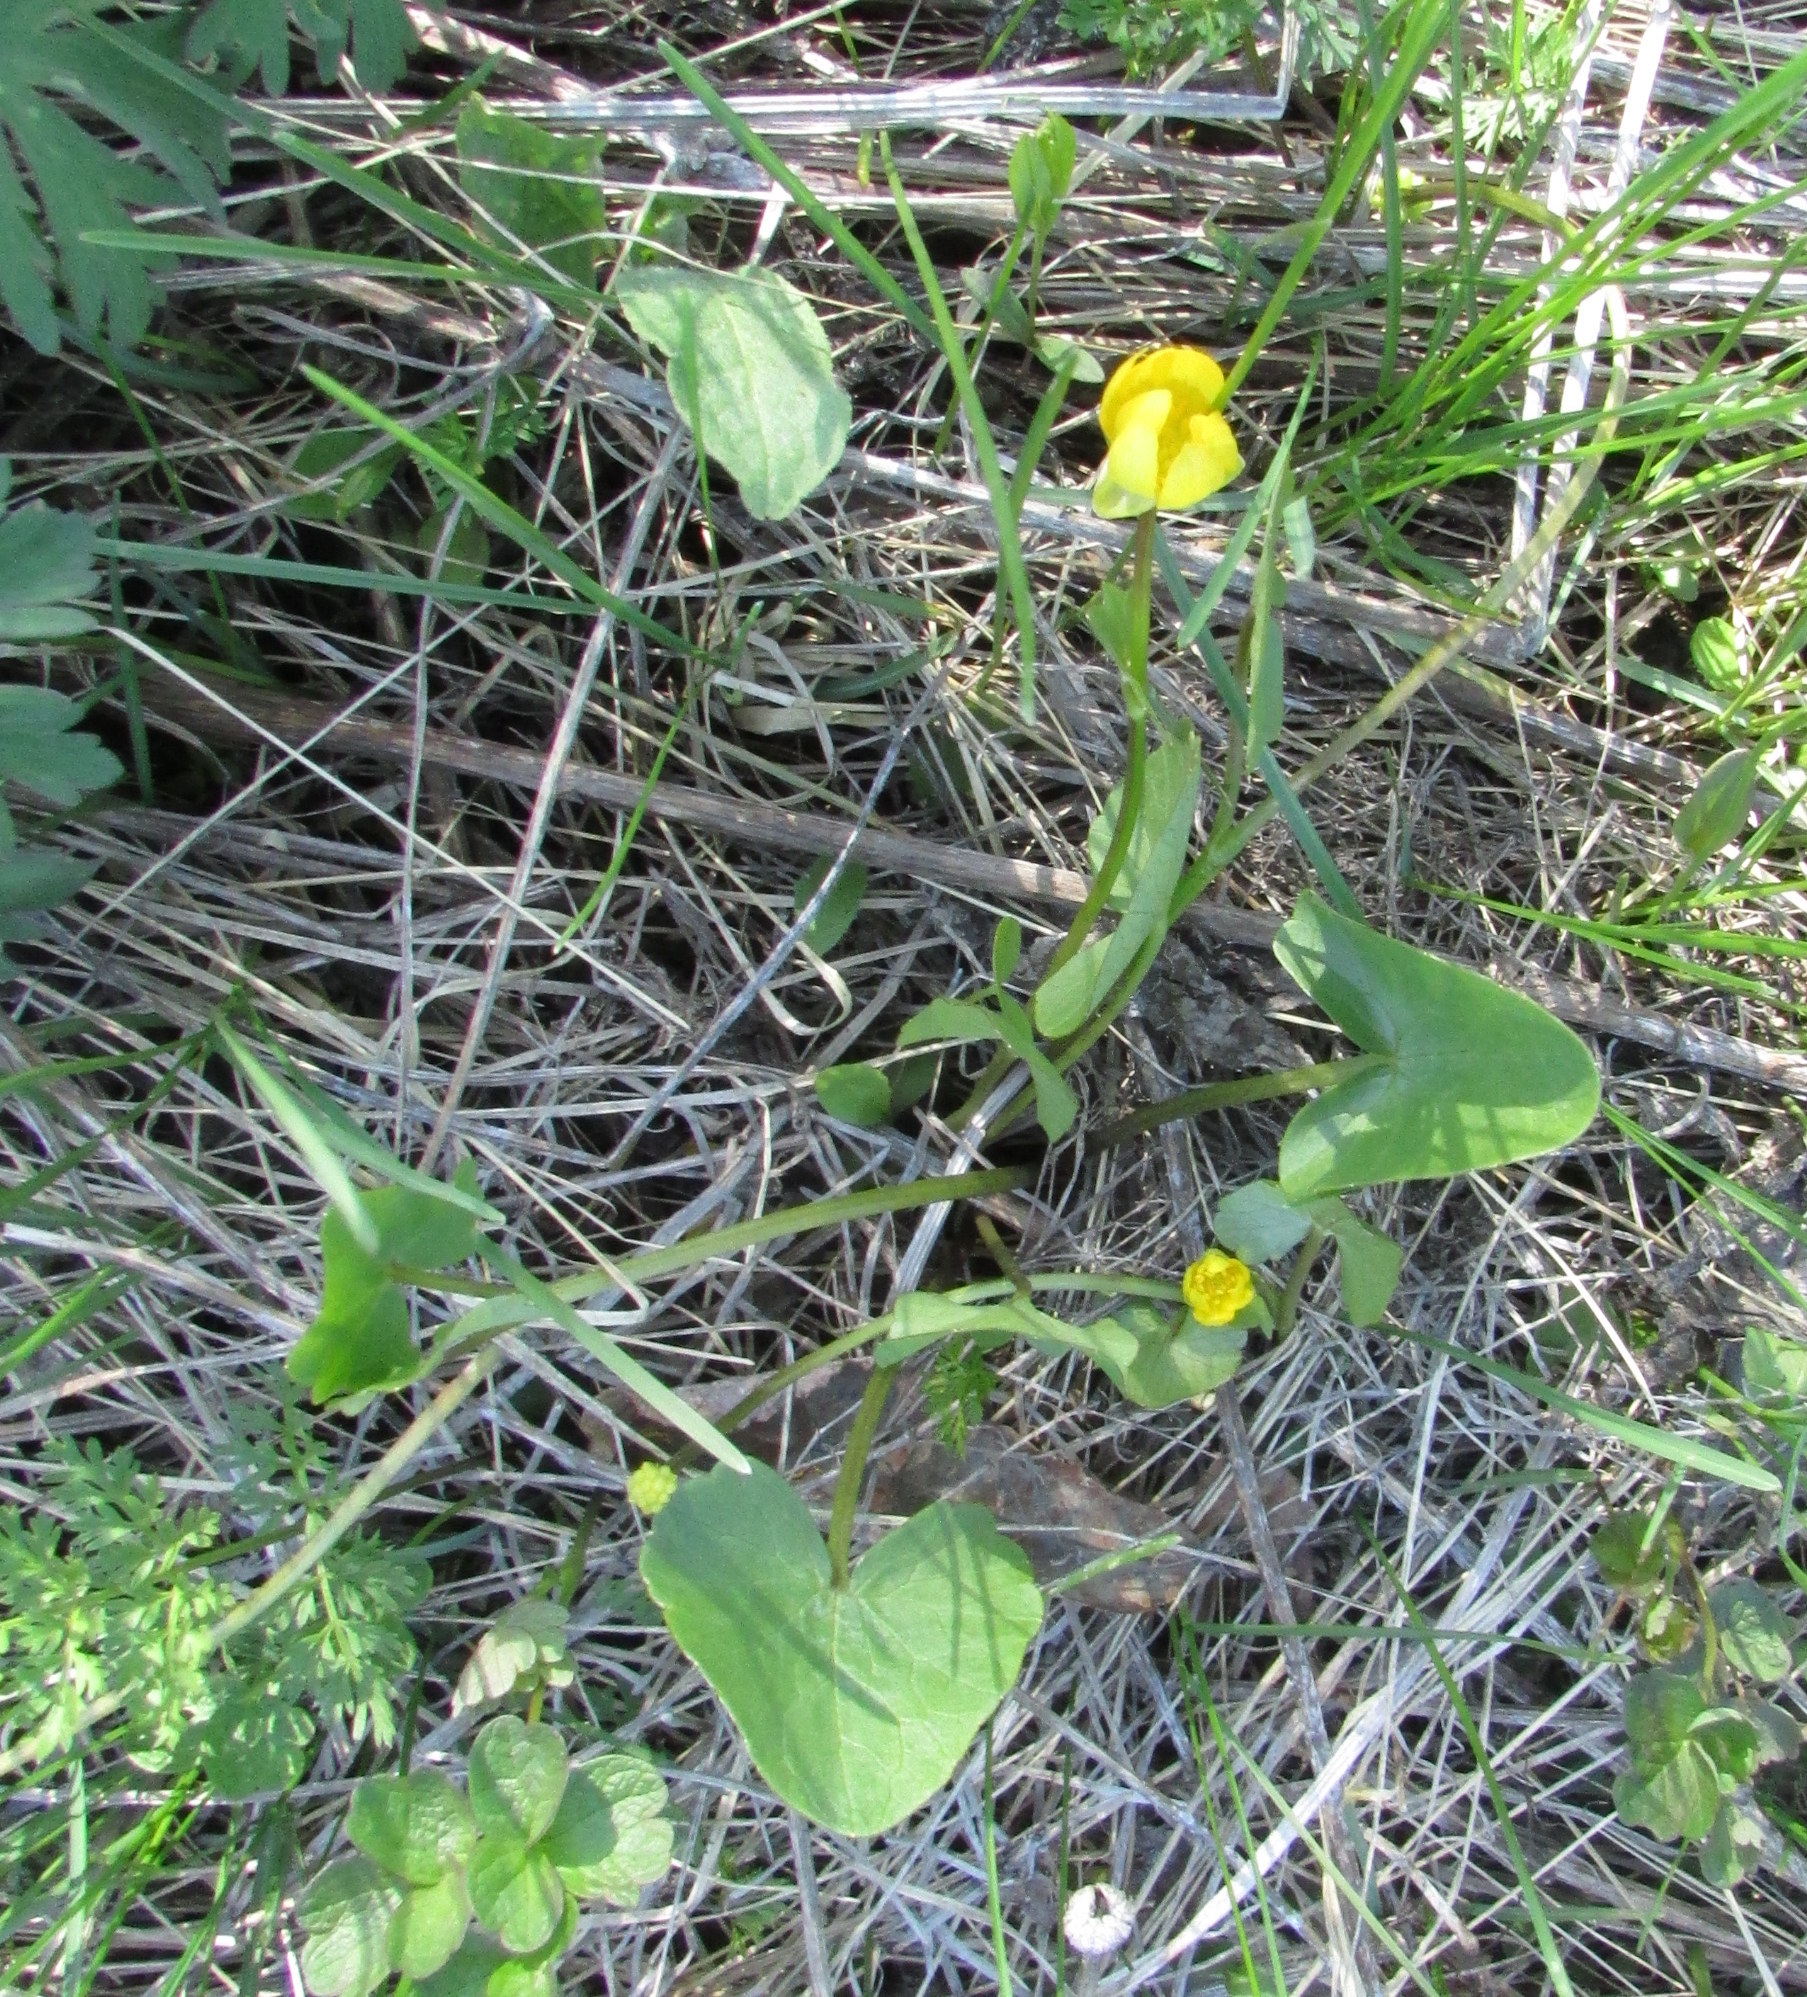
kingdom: Plantae
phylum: Tracheophyta
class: Magnoliopsida
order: Ranunculales
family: Ranunculaceae
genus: Ficaria
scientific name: Ficaria
